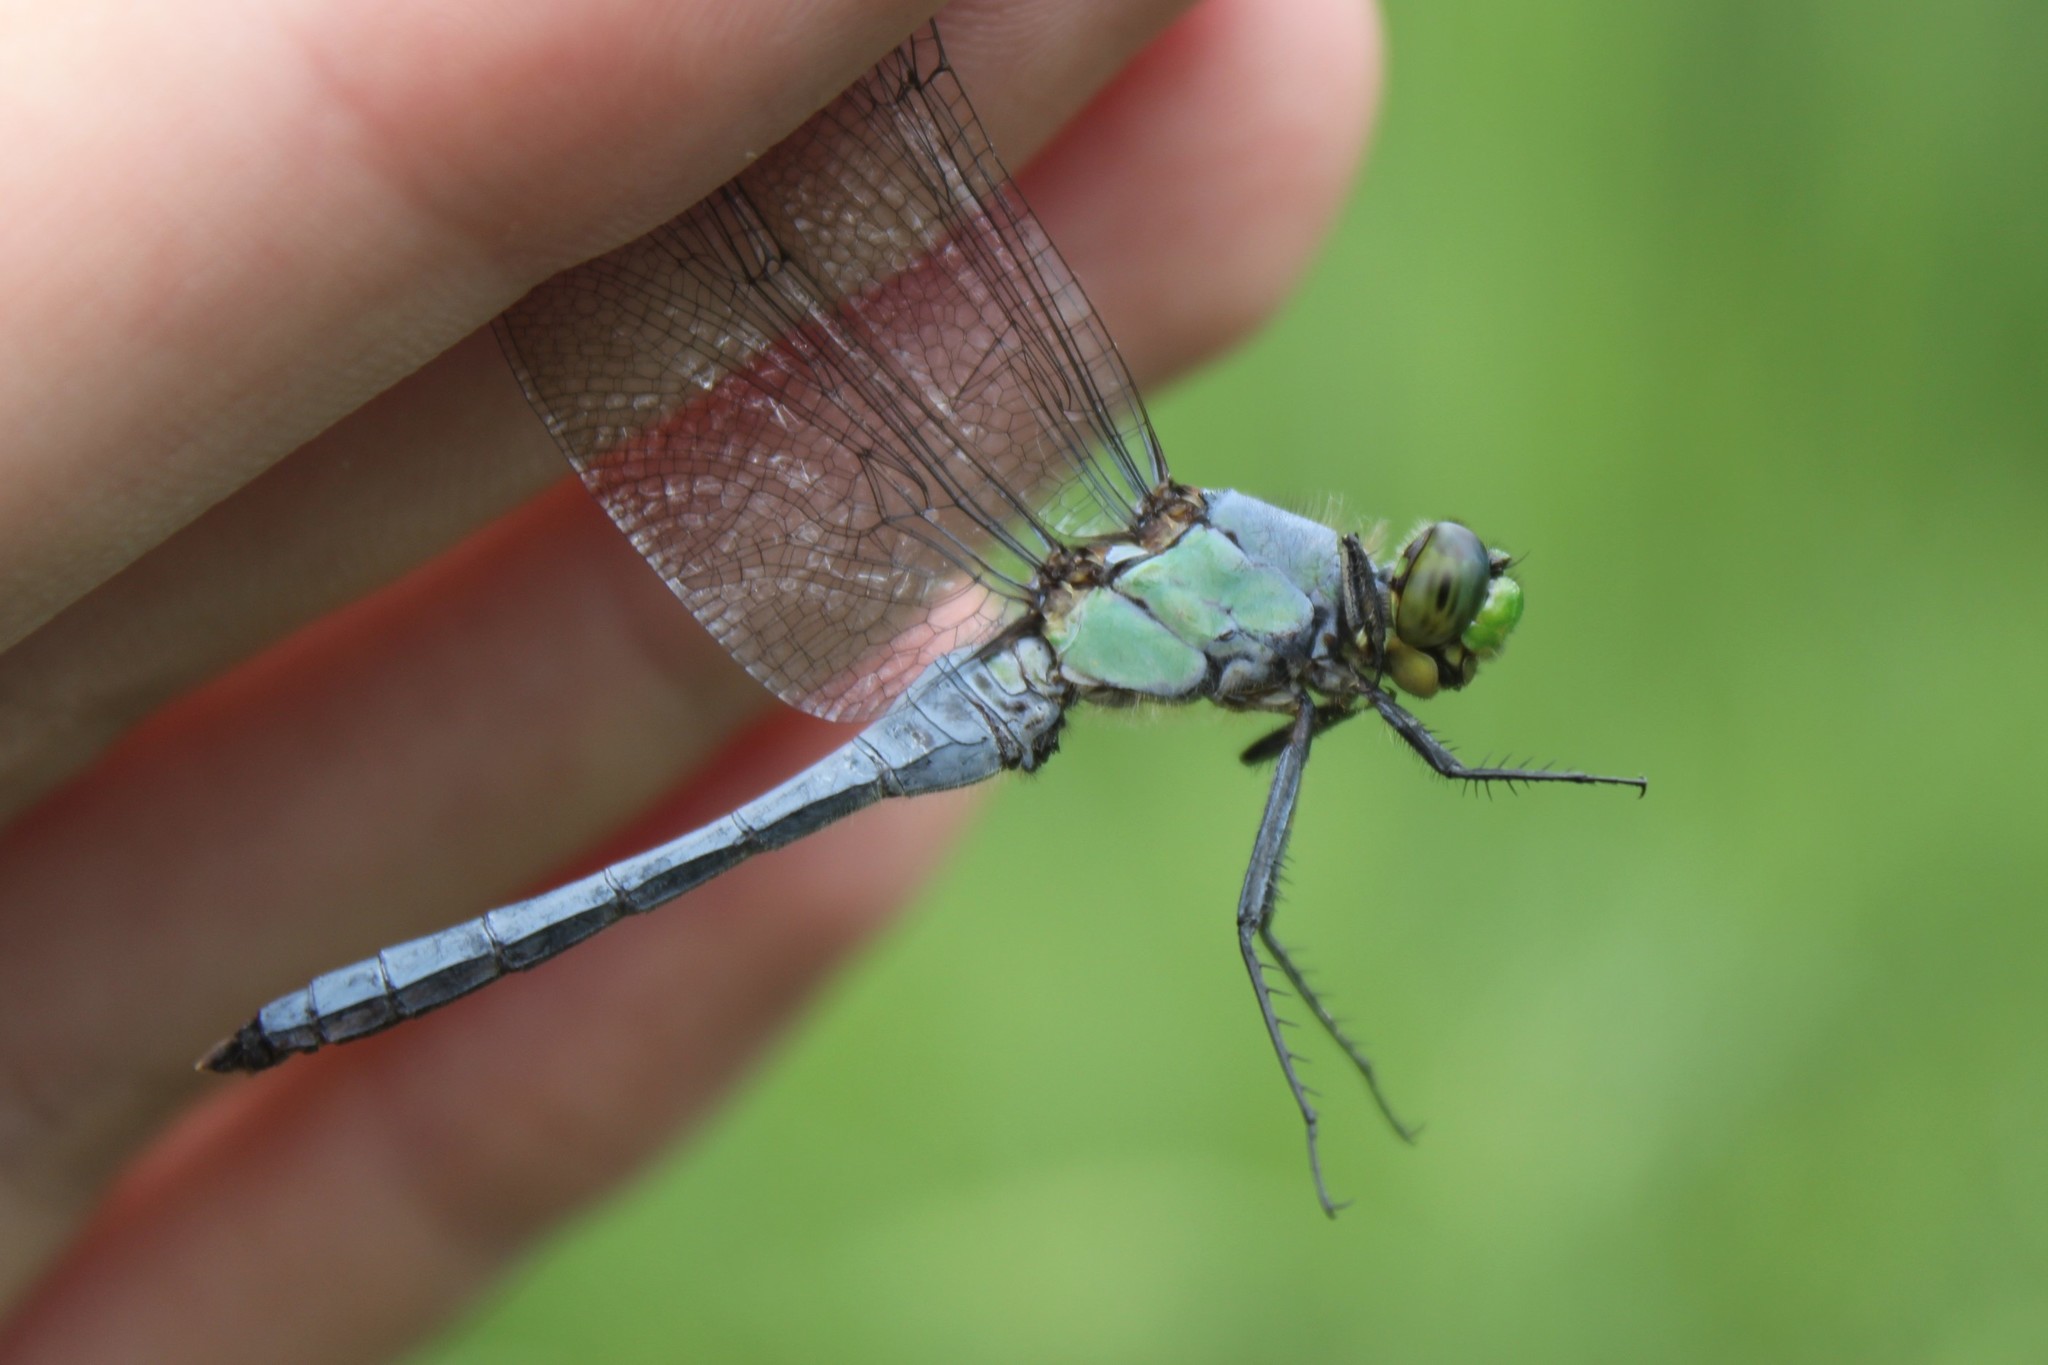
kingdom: Animalia
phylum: Arthropoda
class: Insecta
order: Odonata
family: Libellulidae
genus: Erythemis
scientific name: Erythemis simplicicollis
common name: Eastern pondhawk
